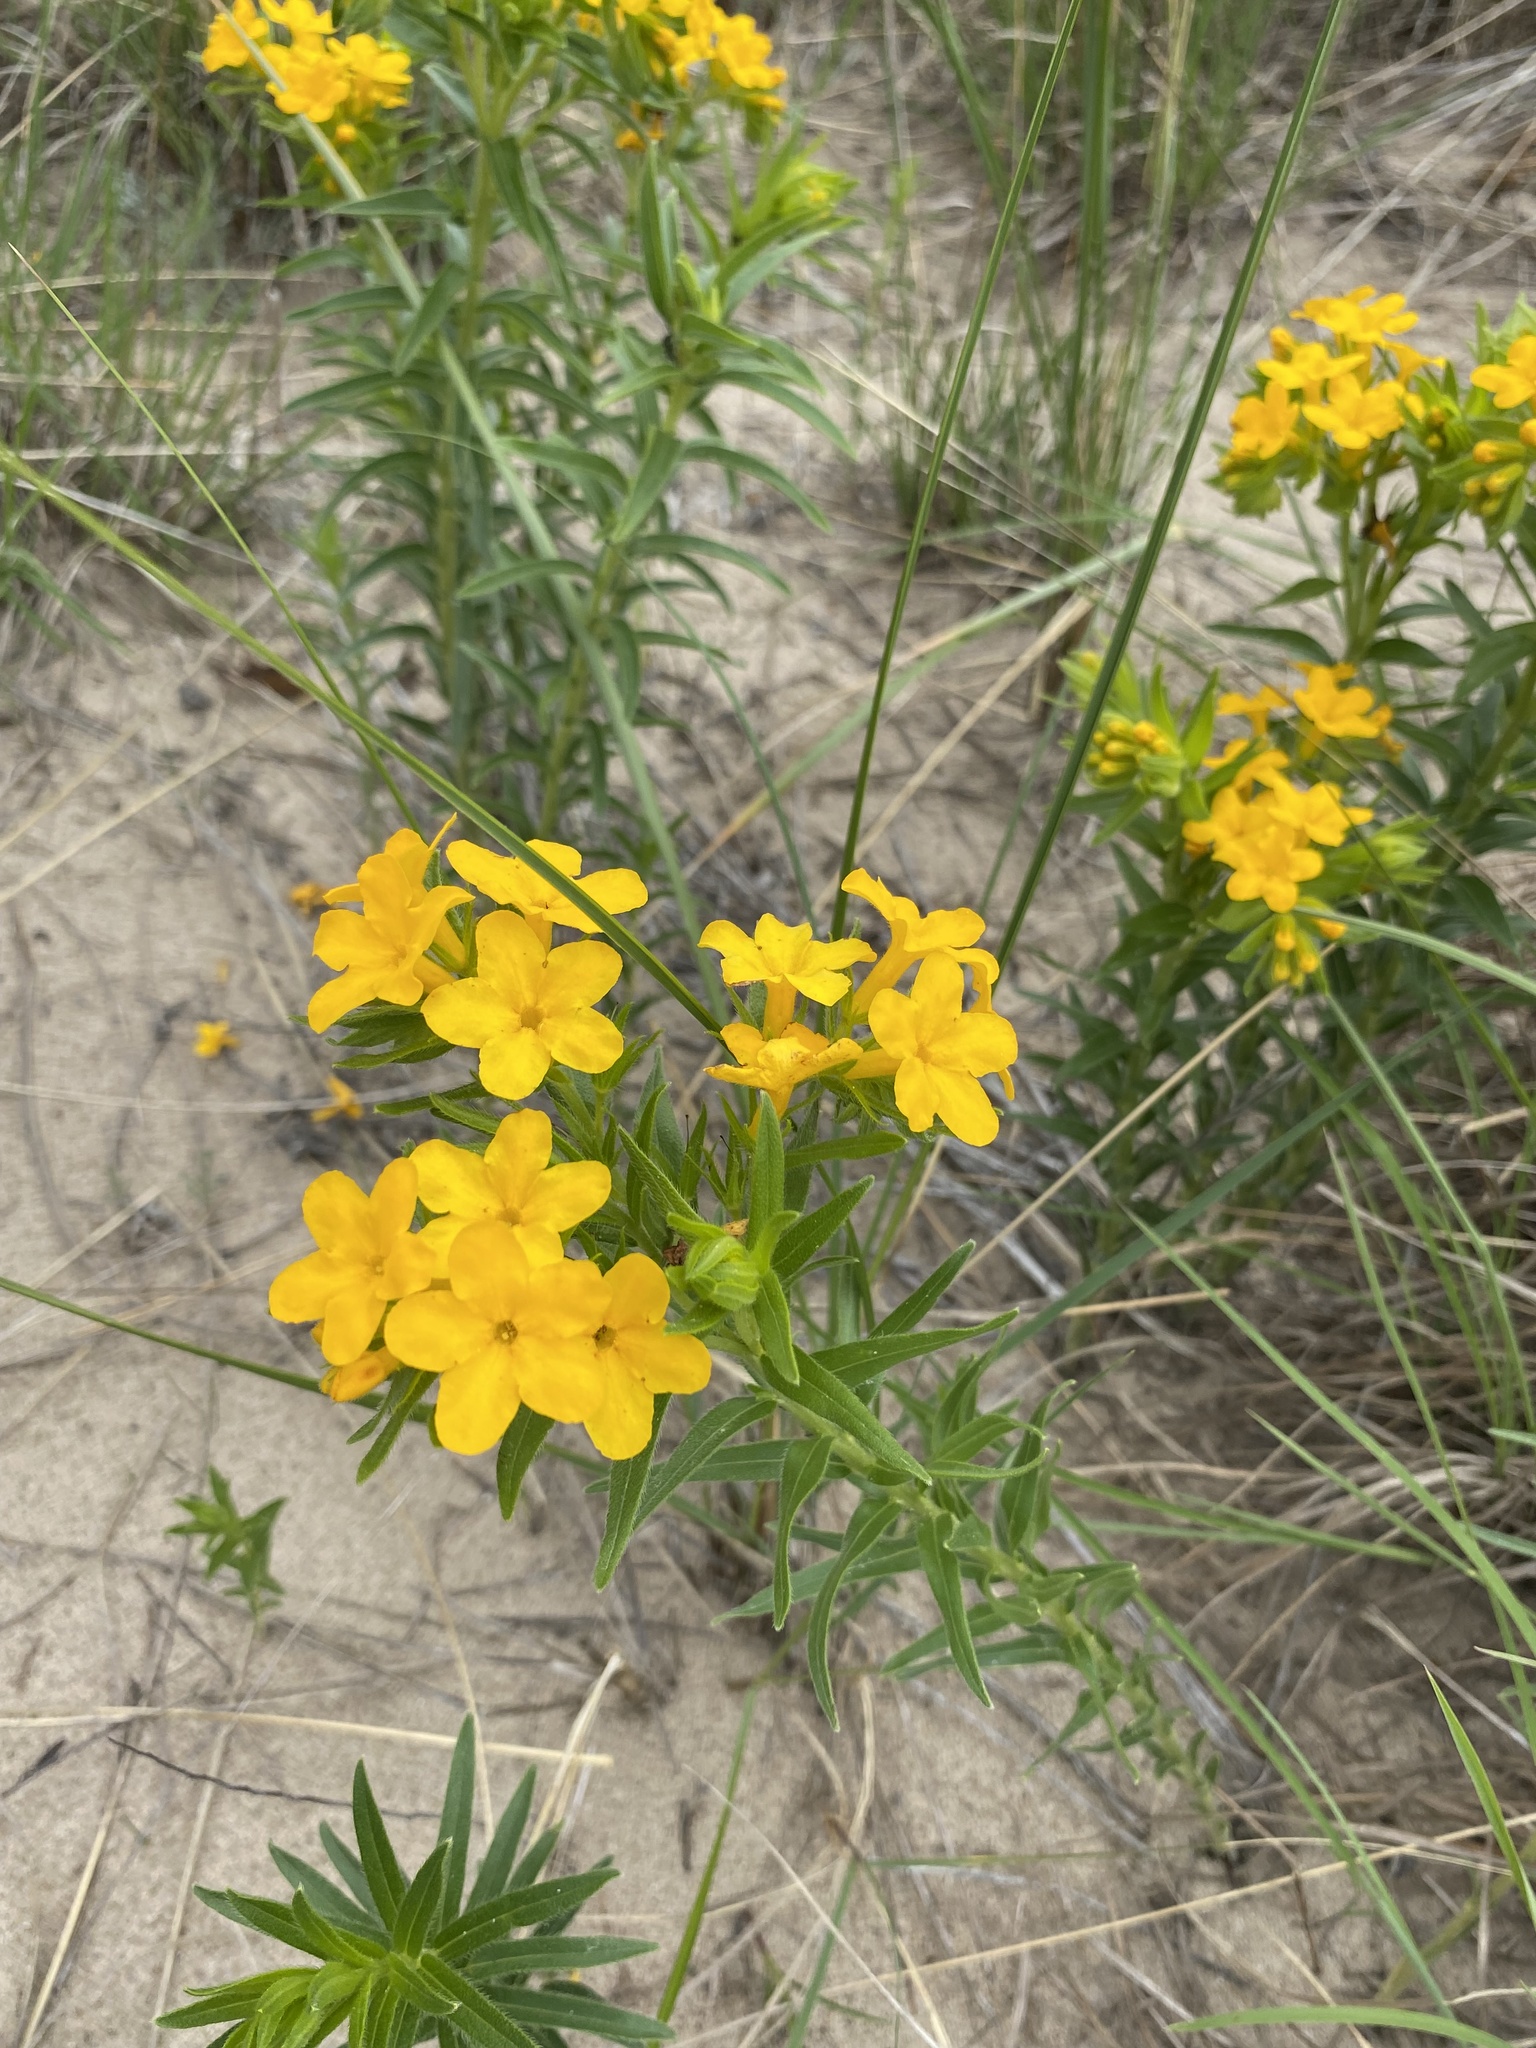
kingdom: Plantae
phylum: Tracheophyta
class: Magnoliopsida
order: Boraginales
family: Boraginaceae
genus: Lithospermum
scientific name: Lithospermum caroliniense
